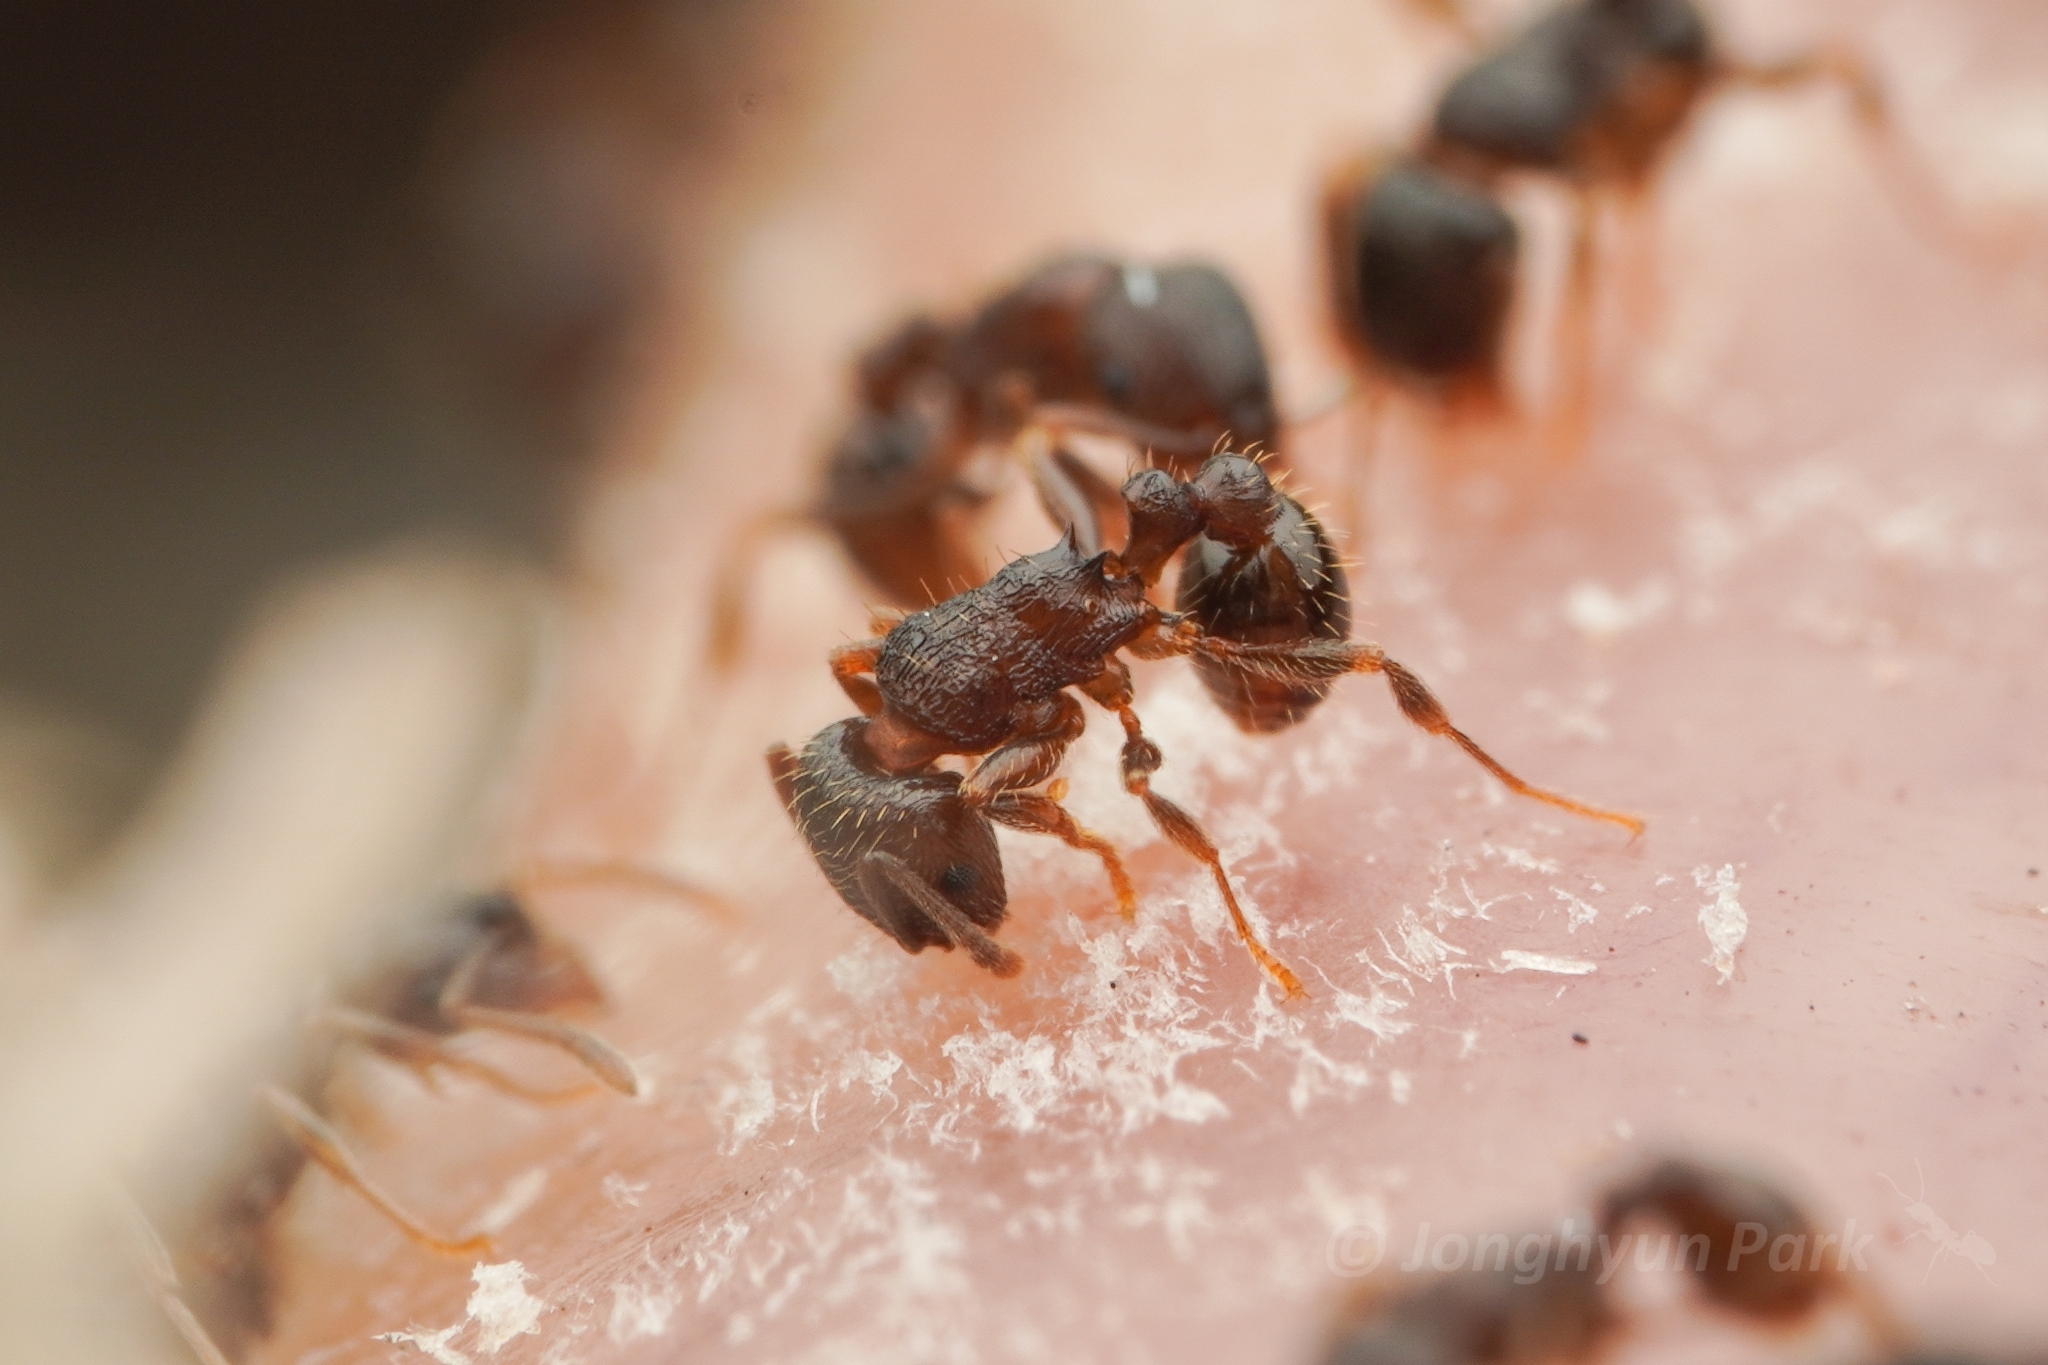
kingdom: Animalia
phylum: Arthropoda
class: Insecta
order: Hymenoptera
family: Formicidae
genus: Tetramorium
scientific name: Tetramorium tsushimae
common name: Ant
